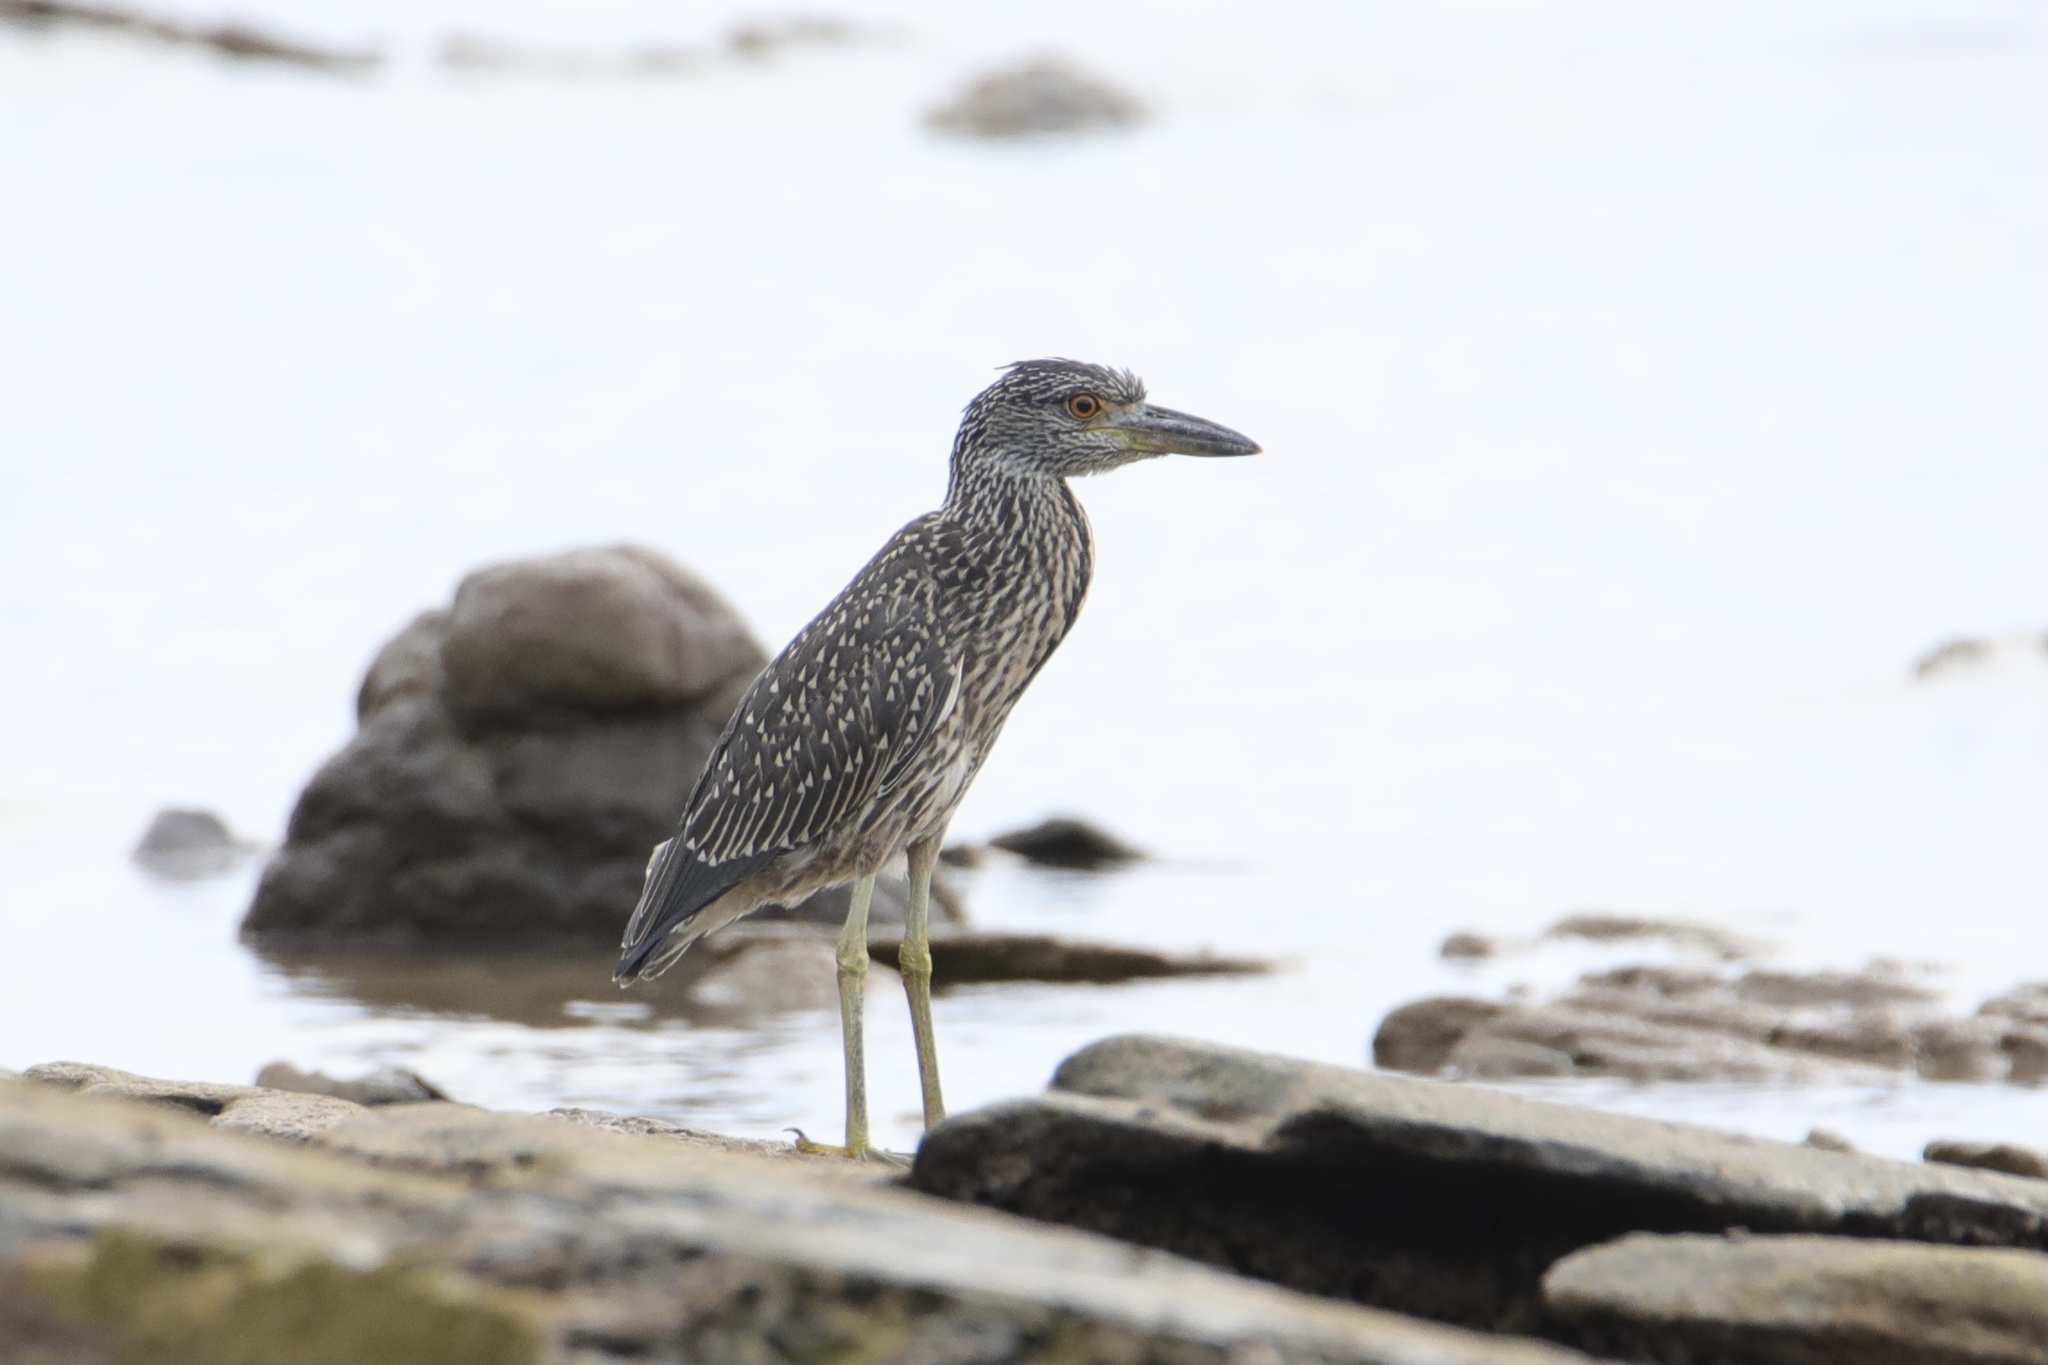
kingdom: Animalia
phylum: Chordata
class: Aves
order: Pelecaniformes
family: Ardeidae
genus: Nyctanassa
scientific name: Nyctanassa violacea
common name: Yellow-crowned night heron
